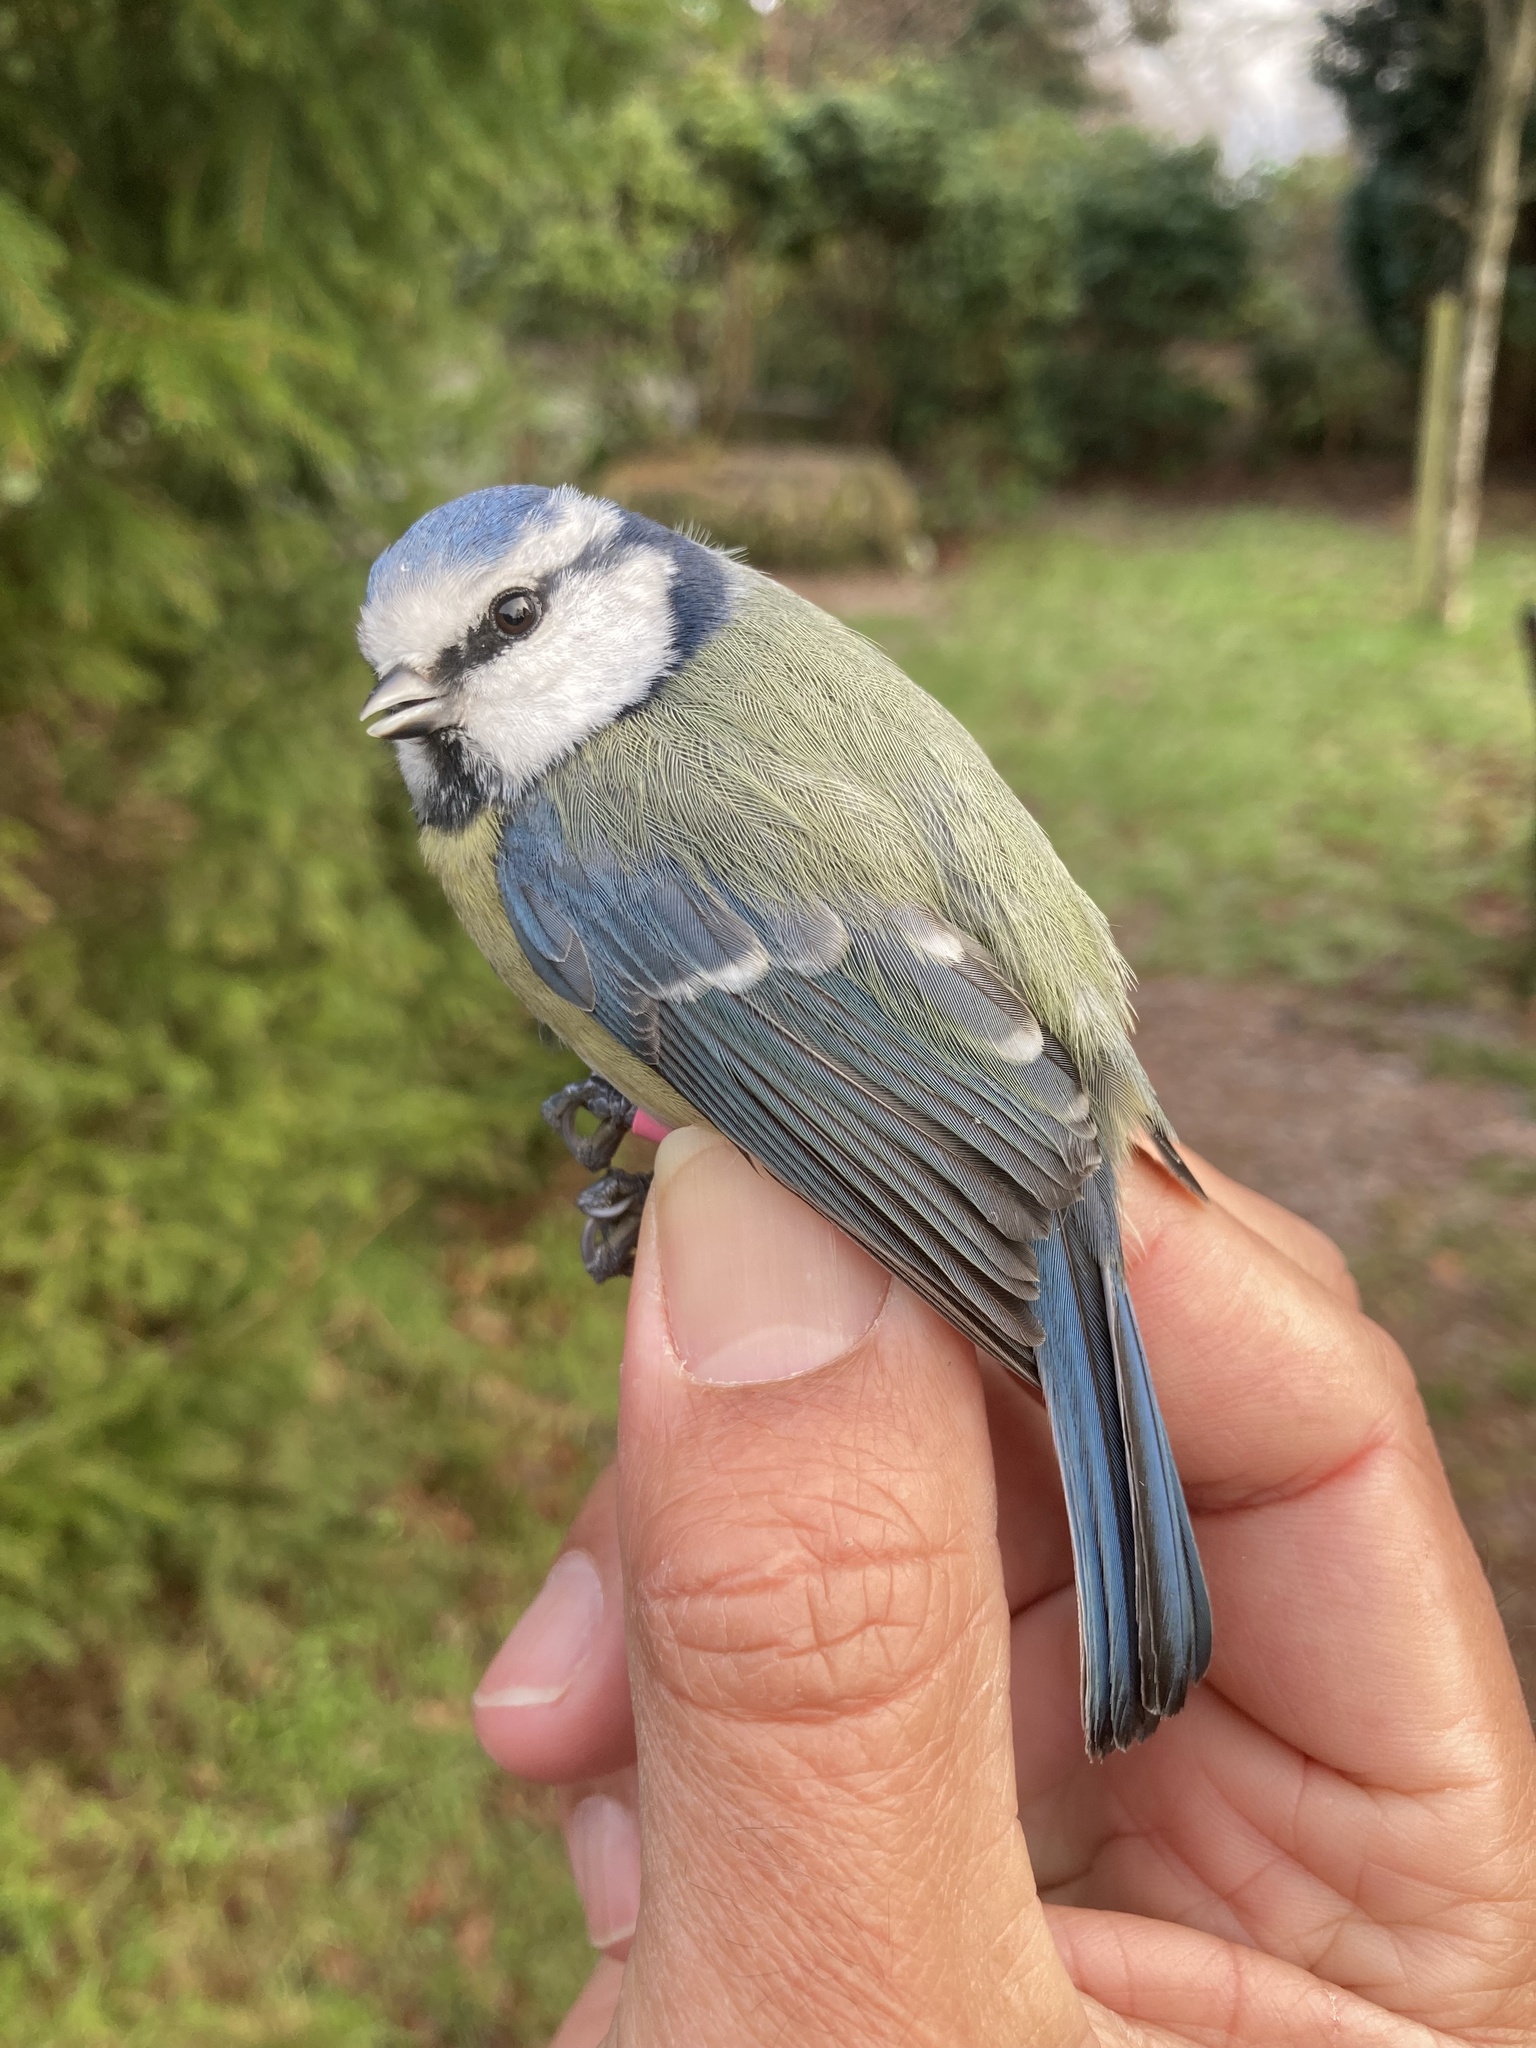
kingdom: Animalia
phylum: Chordata
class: Aves
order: Passeriformes
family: Paridae
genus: Cyanistes
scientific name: Cyanistes caeruleus
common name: Eurasian blue tit
